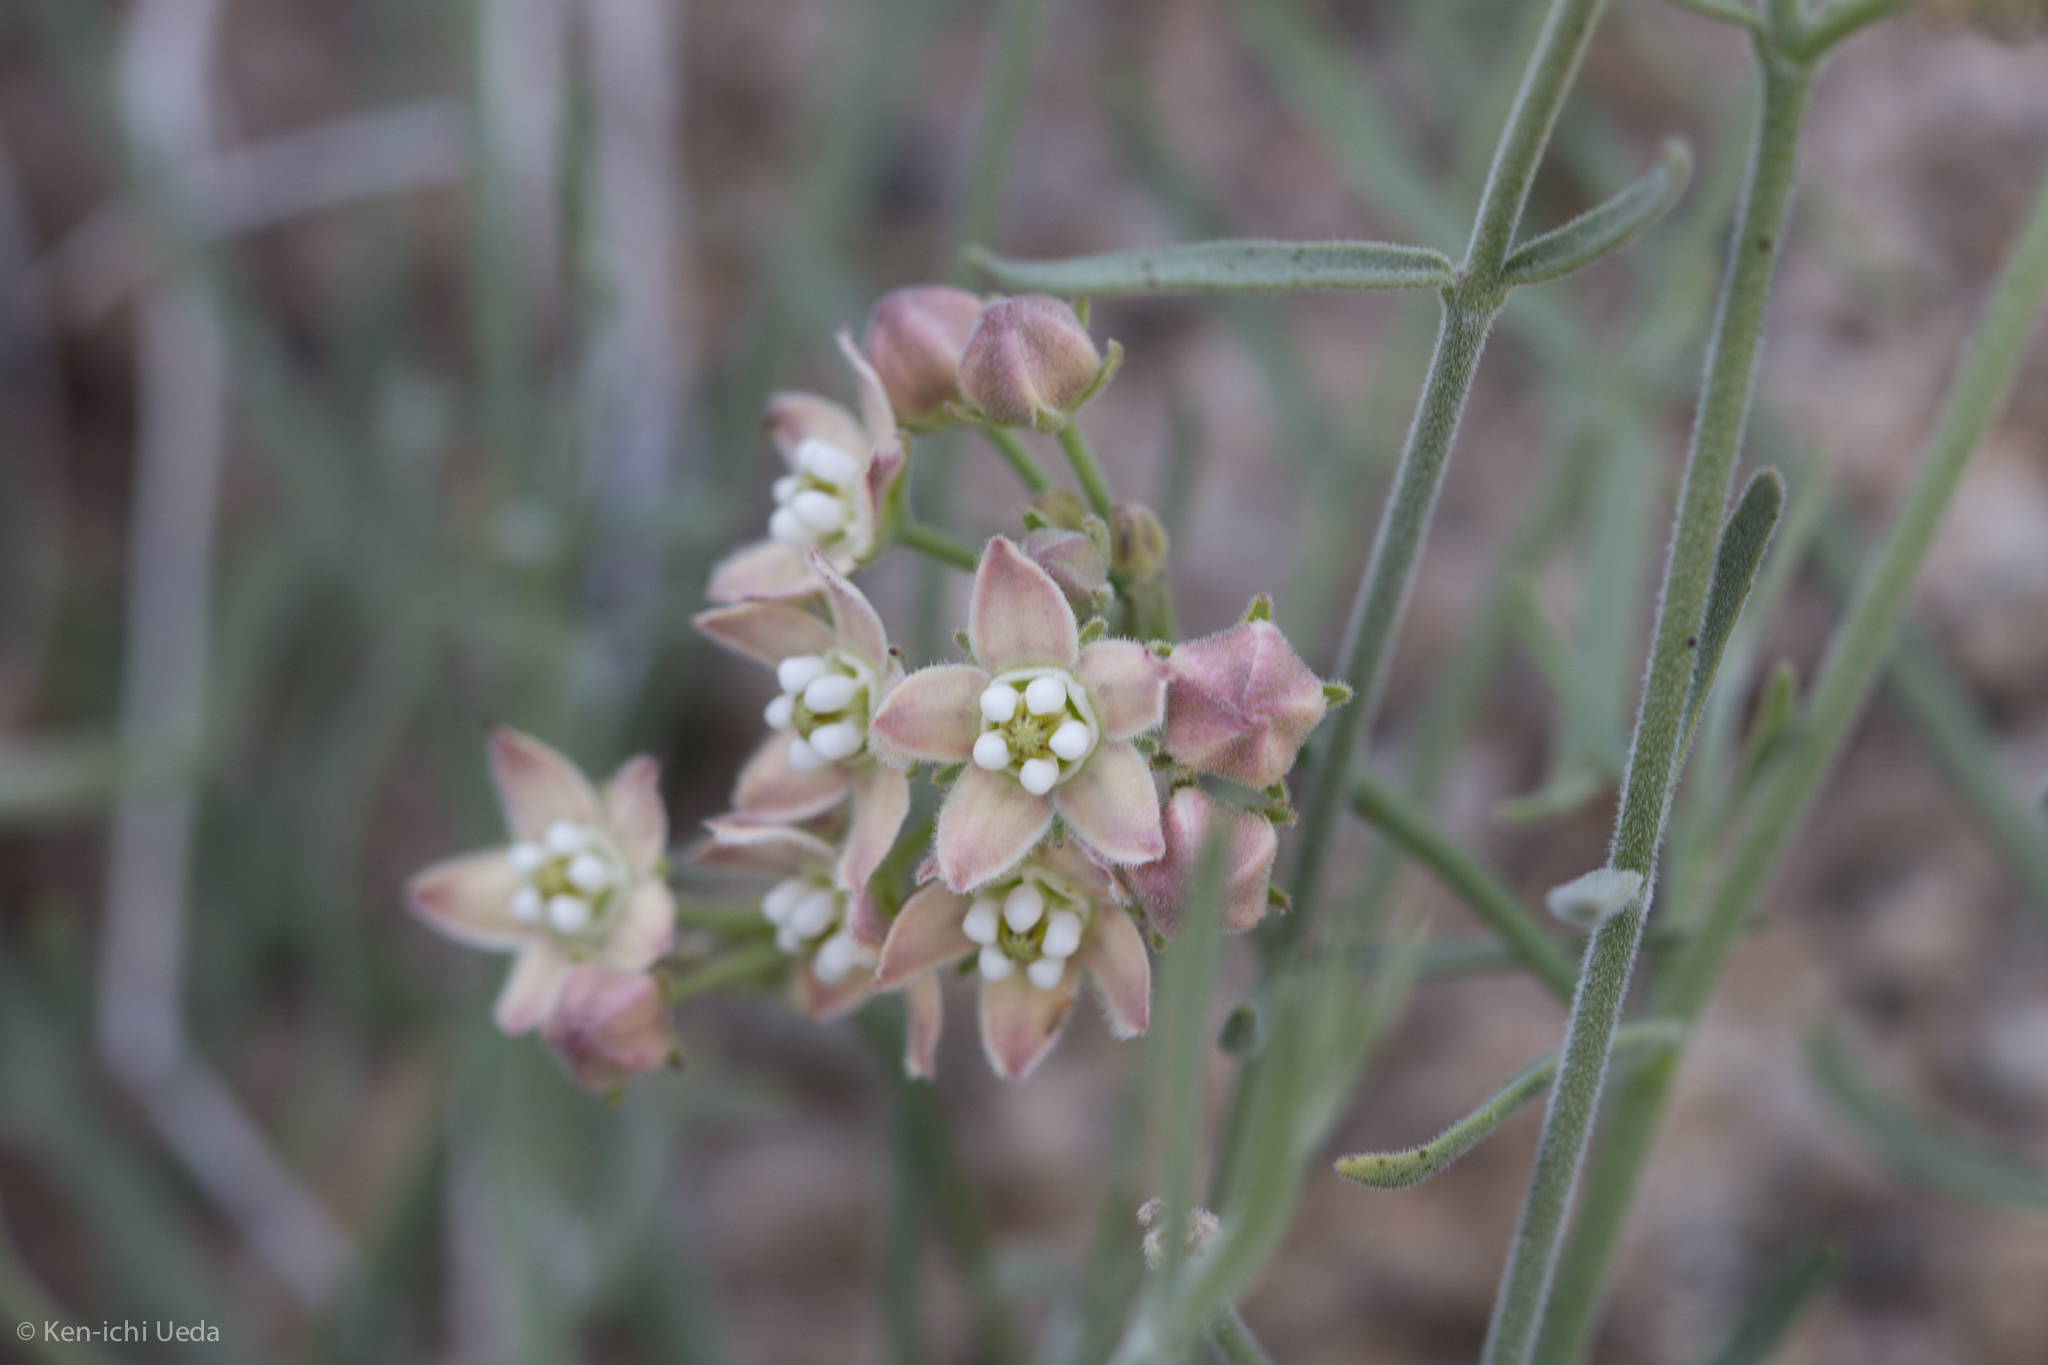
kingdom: Plantae
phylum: Tracheophyta
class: Magnoliopsida
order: Gentianales
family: Apocynaceae
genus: Funastrum
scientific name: Funastrum hirtellum
